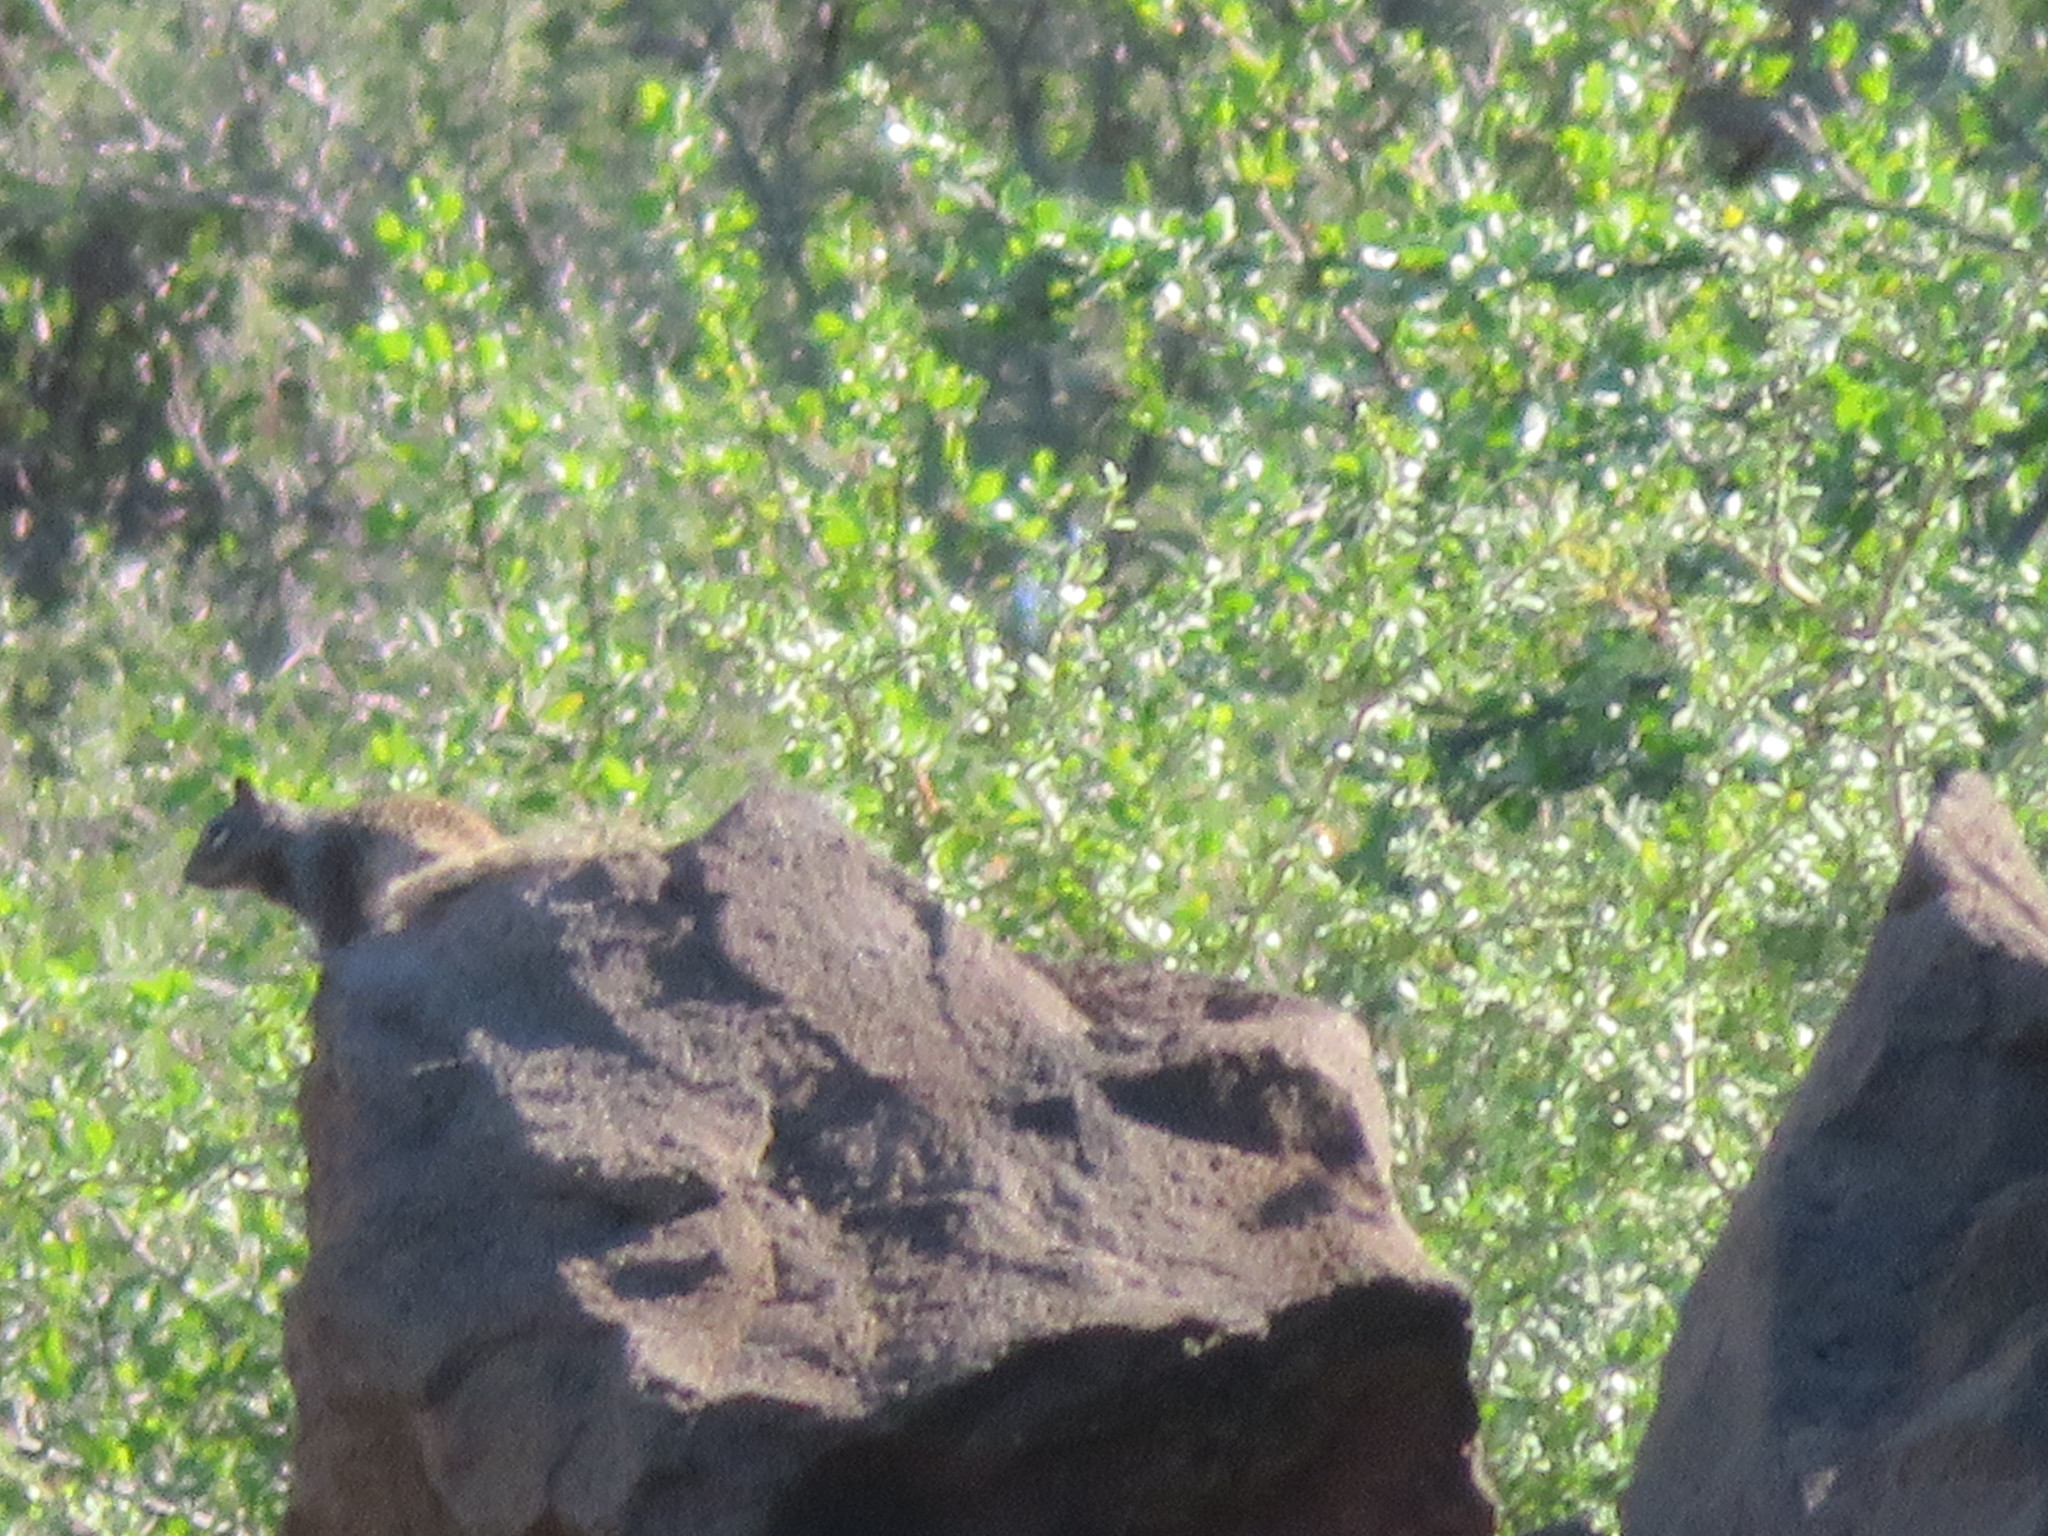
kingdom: Animalia
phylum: Chordata
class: Mammalia
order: Rodentia
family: Sciuridae
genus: Otospermophilus
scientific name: Otospermophilus atricapillus
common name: Baja california rock squirrel
